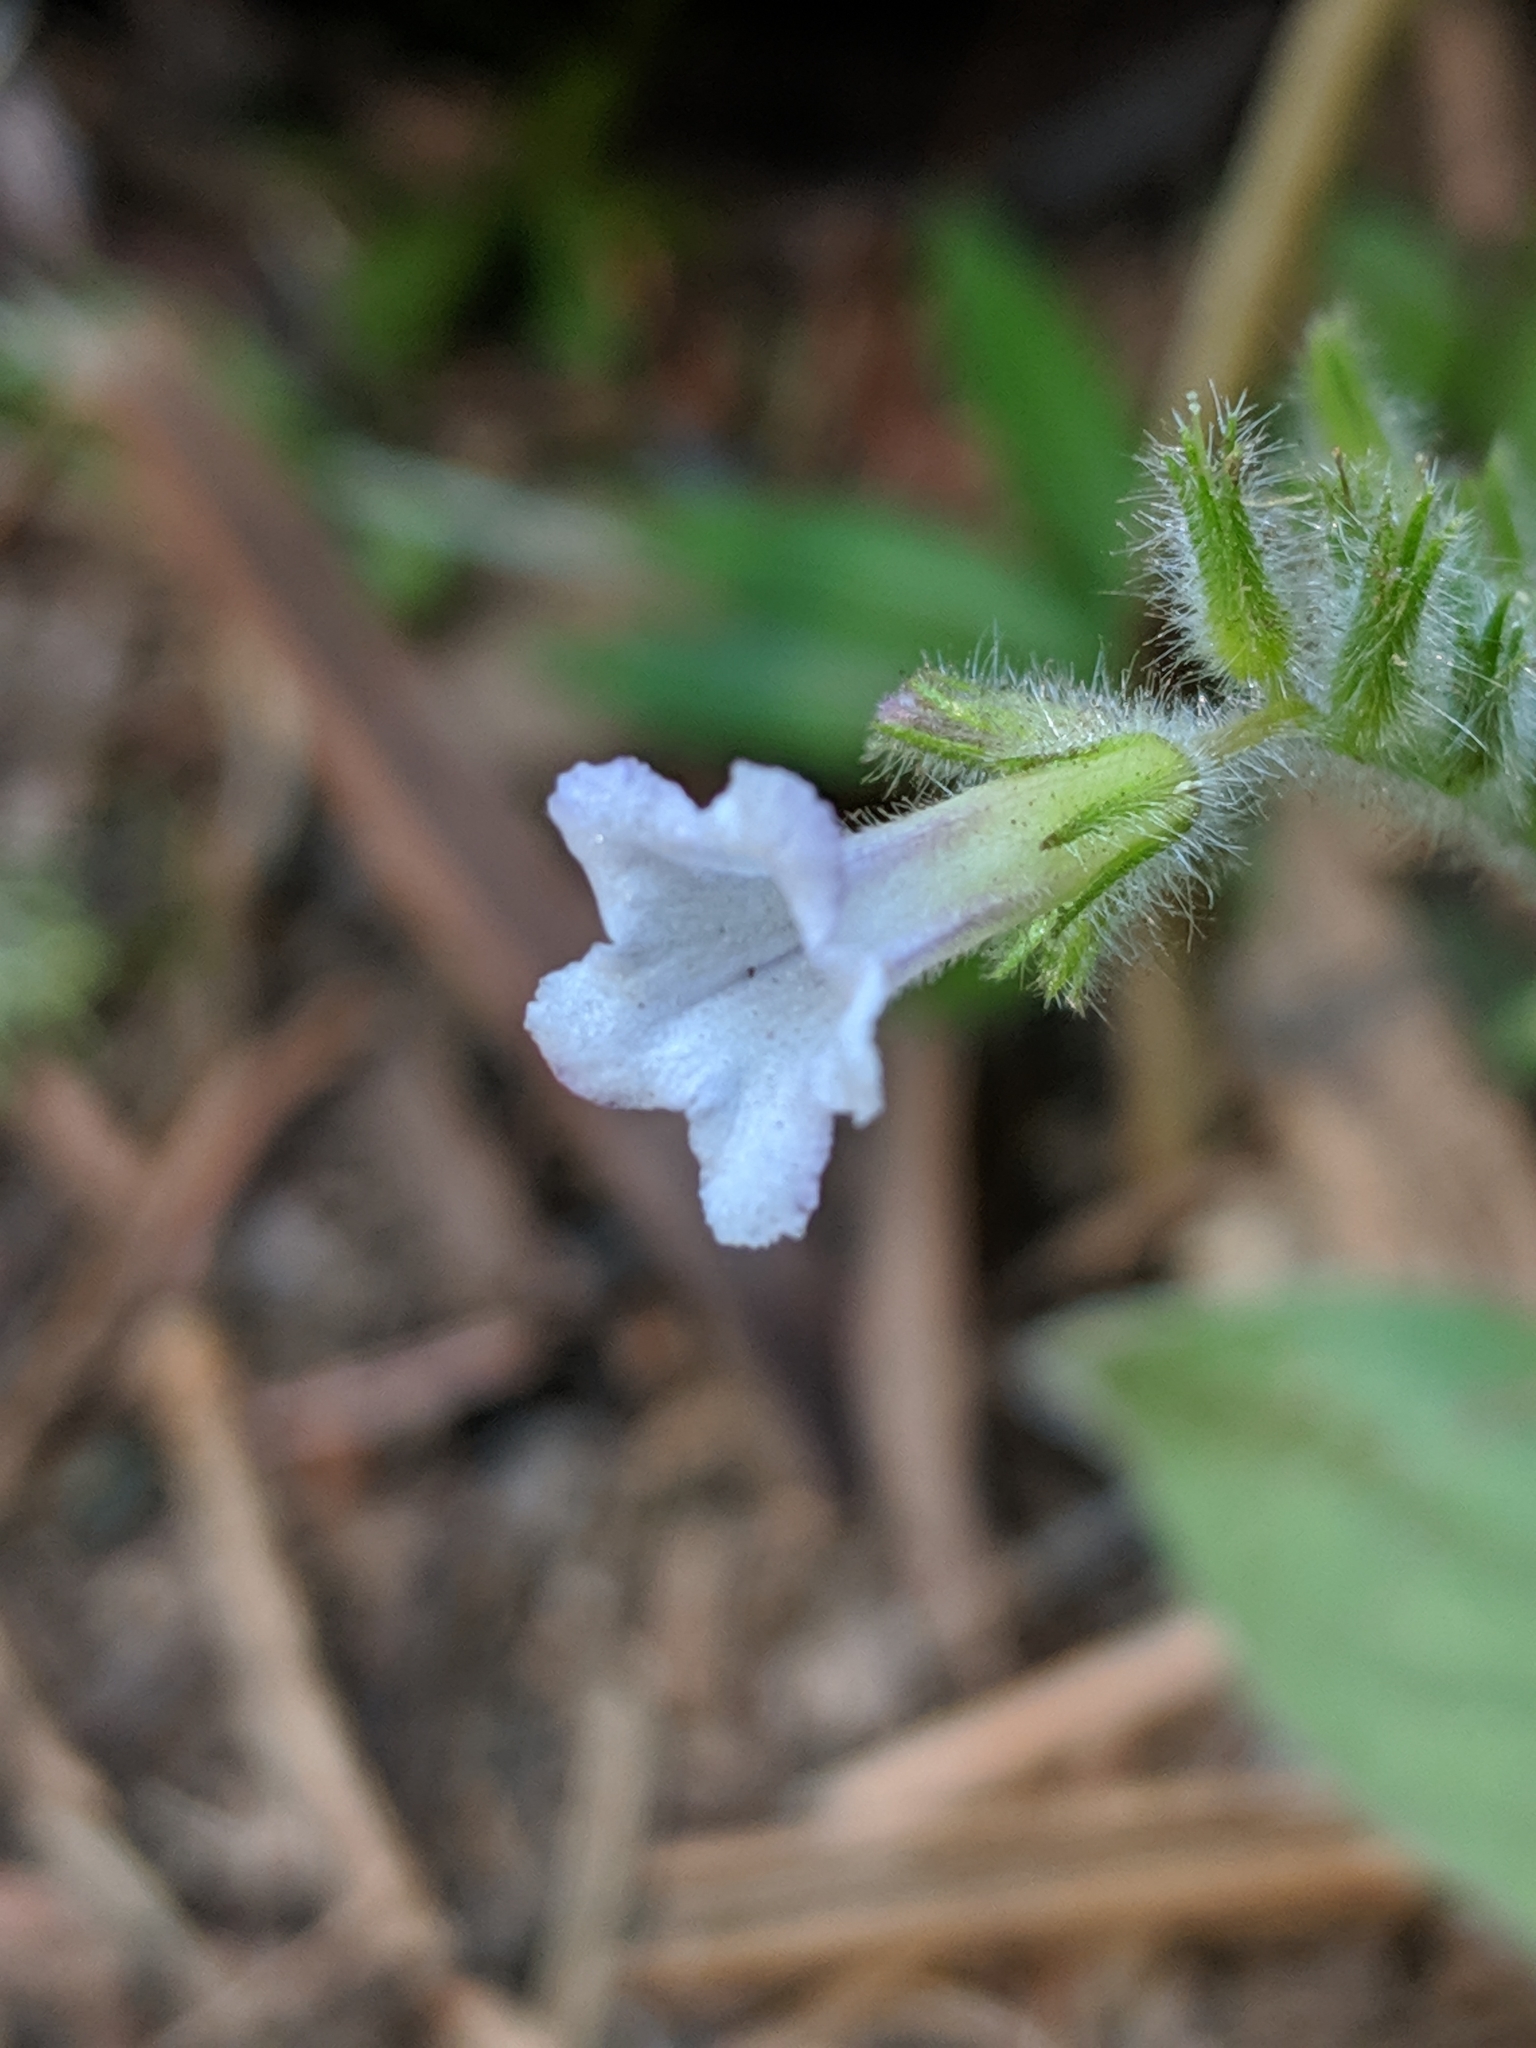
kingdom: Plantae
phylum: Tracheophyta
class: Magnoliopsida
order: Boraginales
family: Hydrophyllaceae
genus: Draperia
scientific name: Draperia systyla
